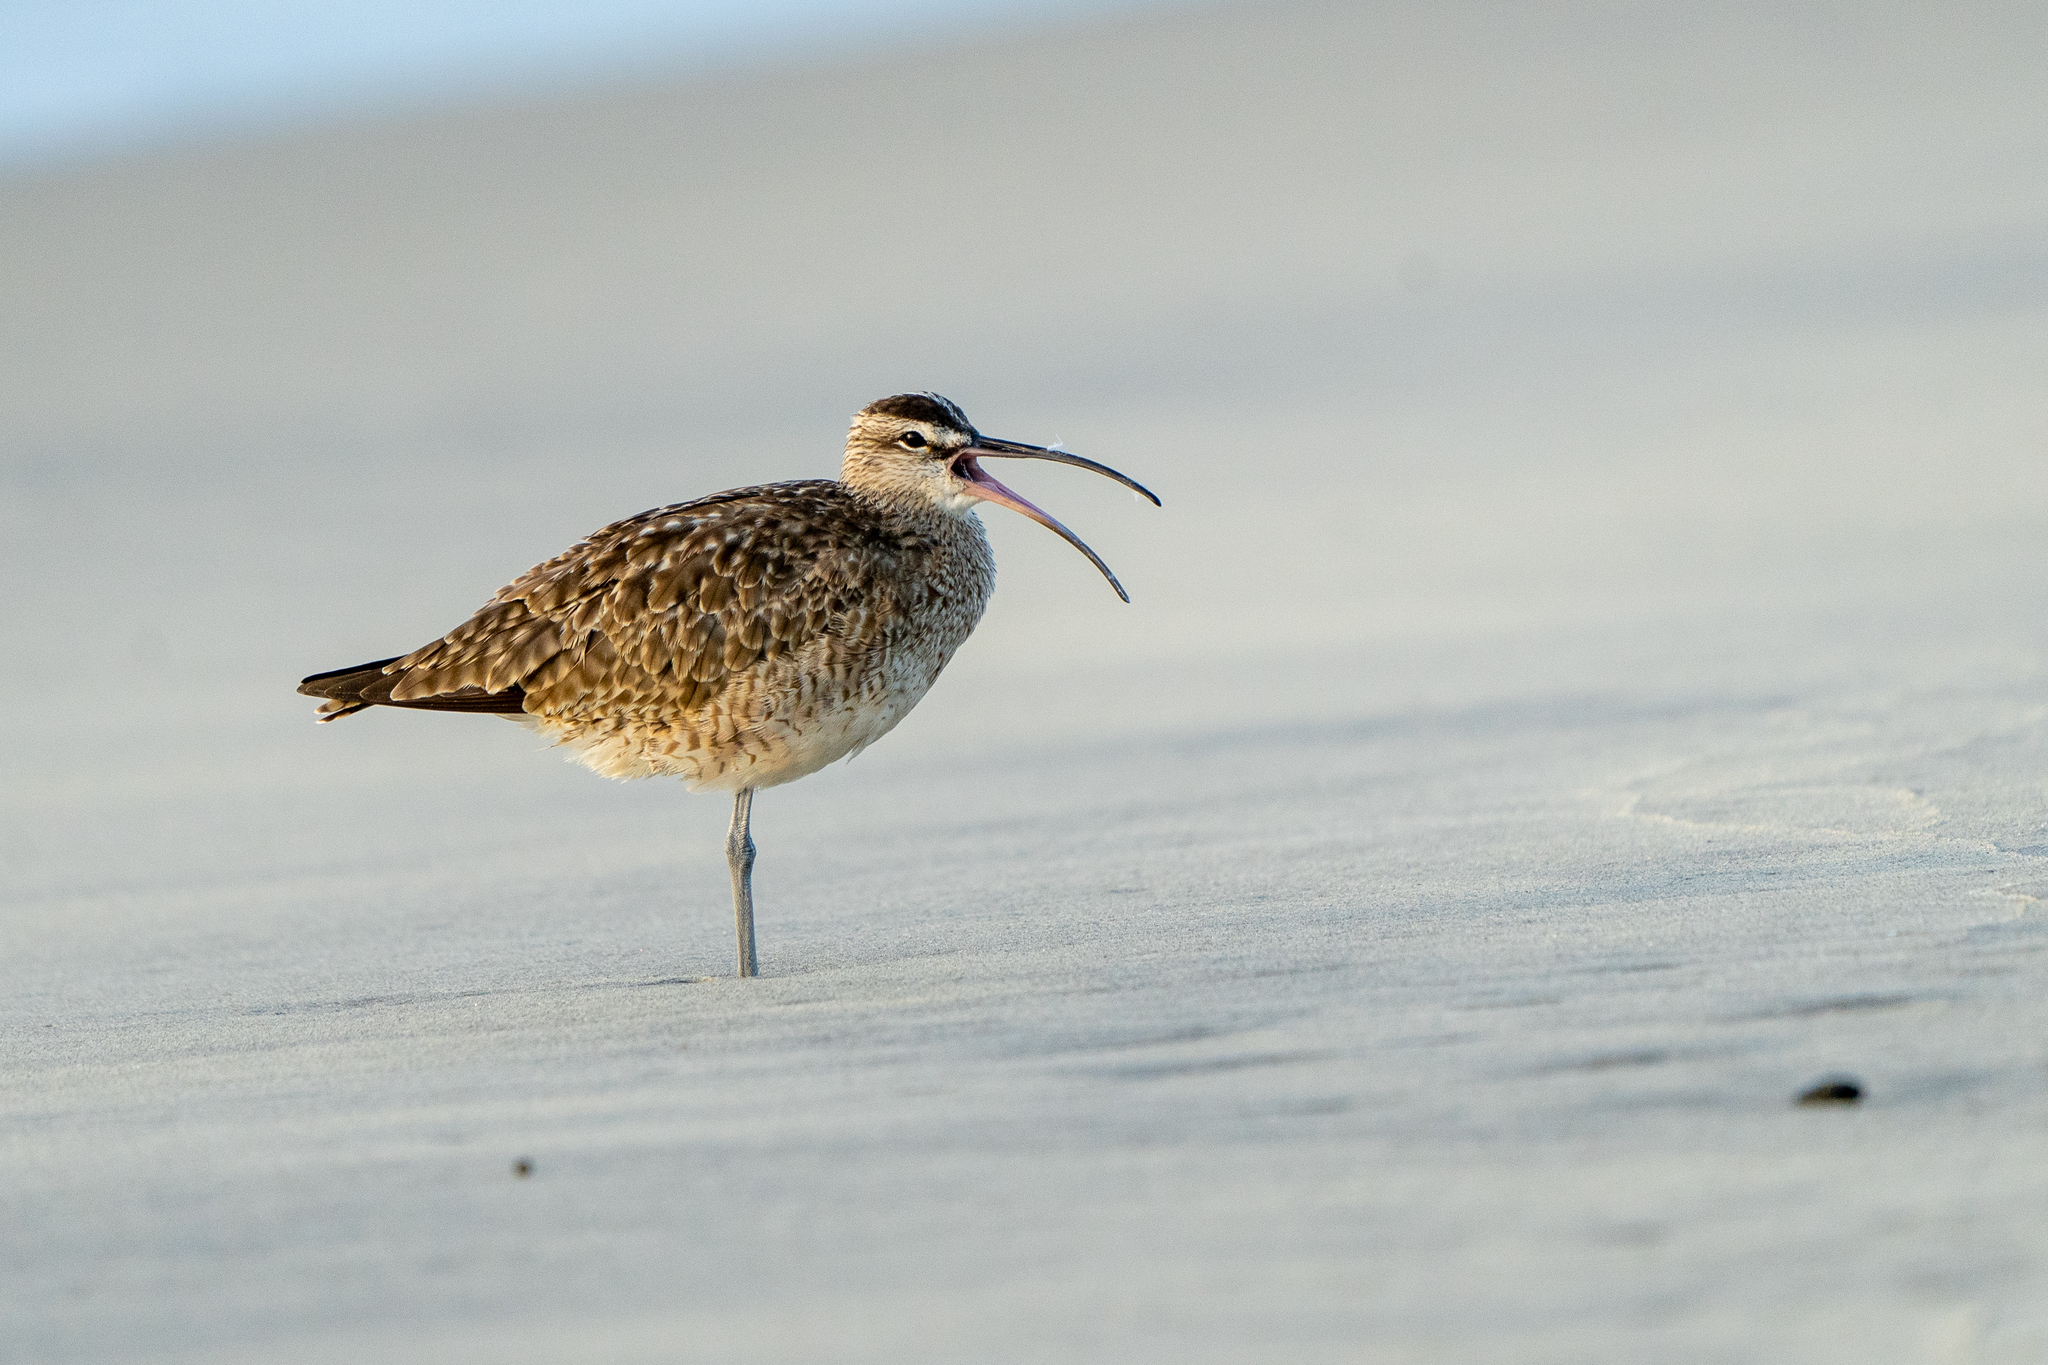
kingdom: Animalia
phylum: Chordata
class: Aves
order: Charadriiformes
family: Scolopacidae
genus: Numenius
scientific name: Numenius phaeopus
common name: Whimbrel
